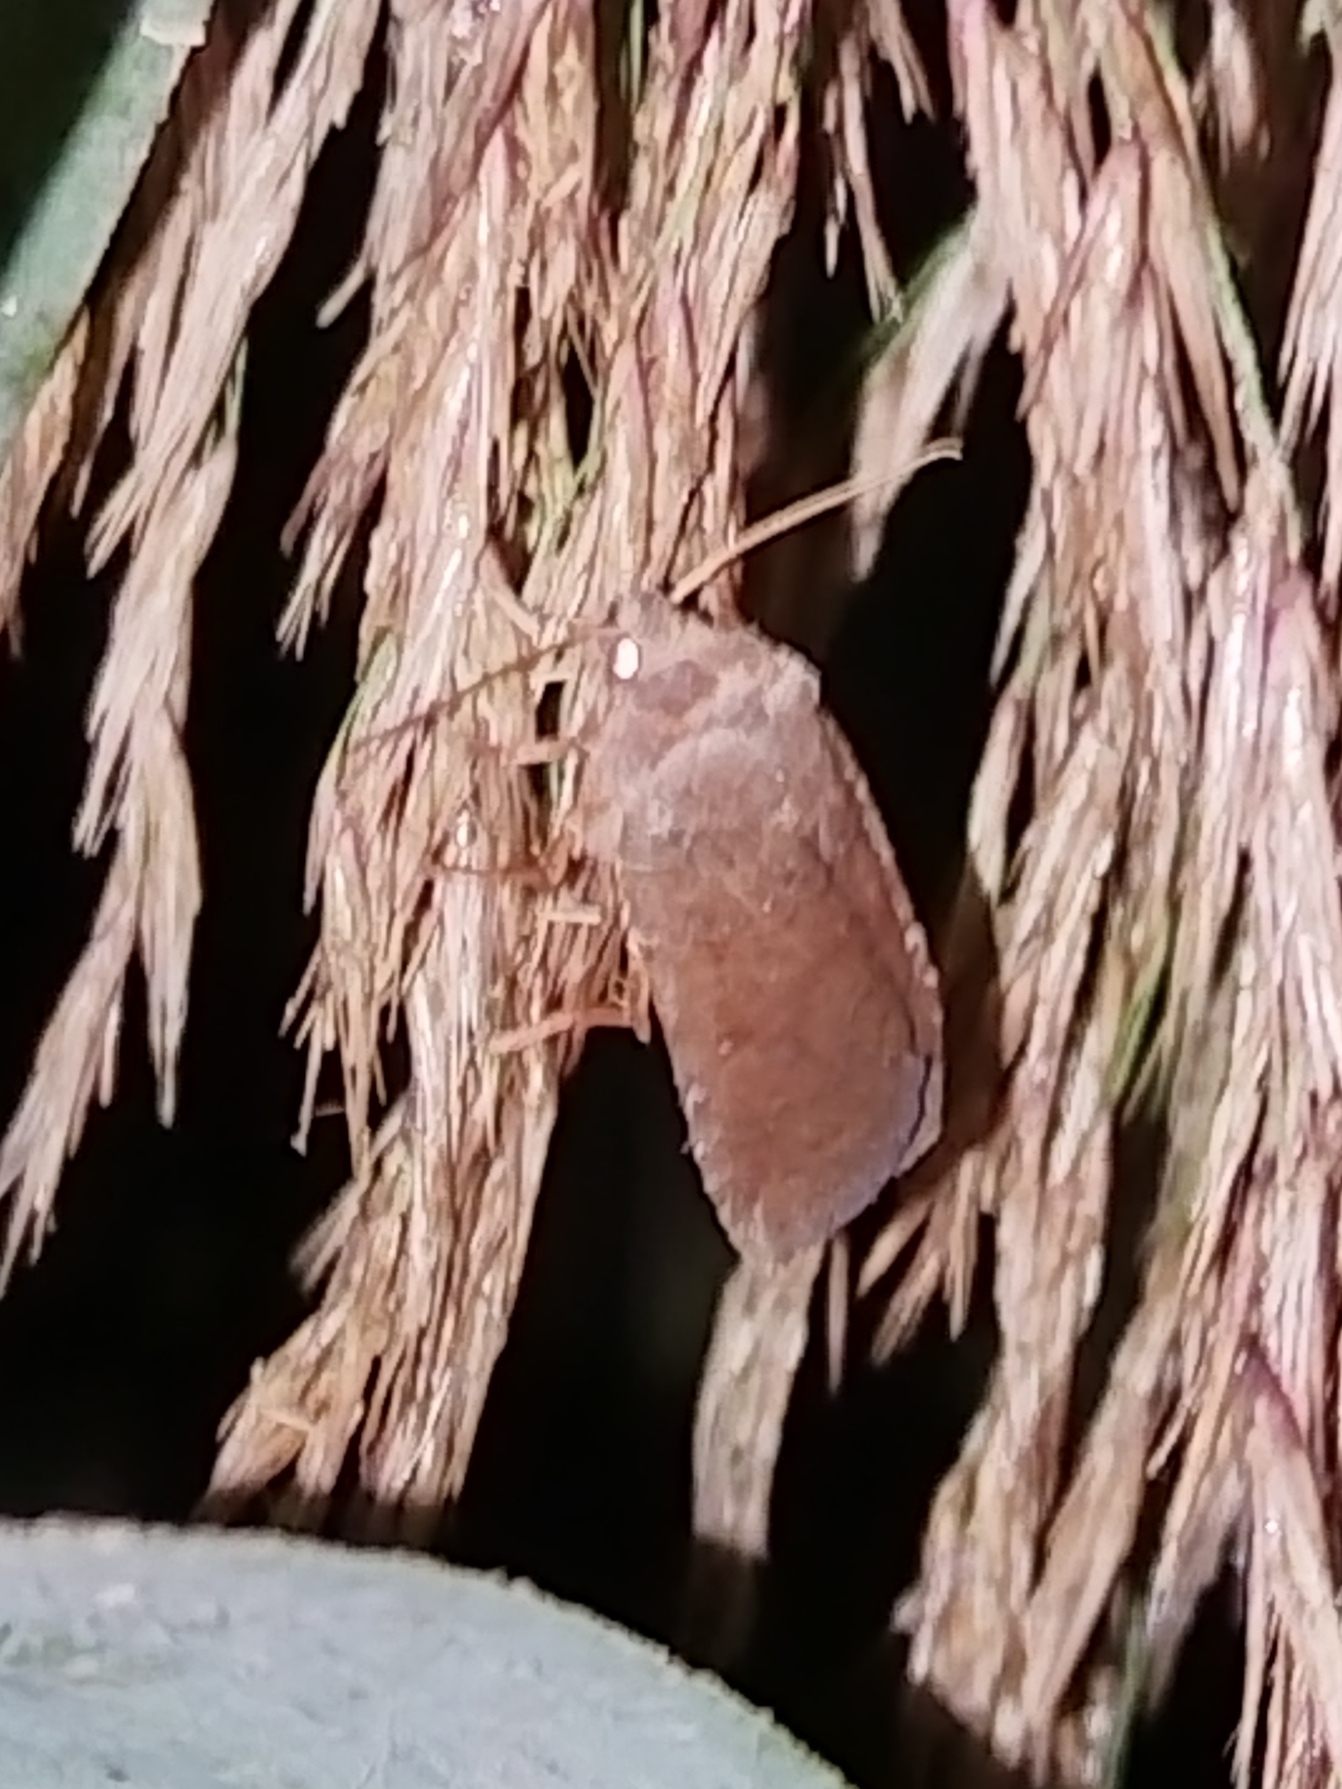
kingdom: Animalia
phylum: Arthropoda
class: Insecta
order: Lepidoptera
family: Noctuidae
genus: Conistra
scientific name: Conistra vaccinii
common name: Chestnut
